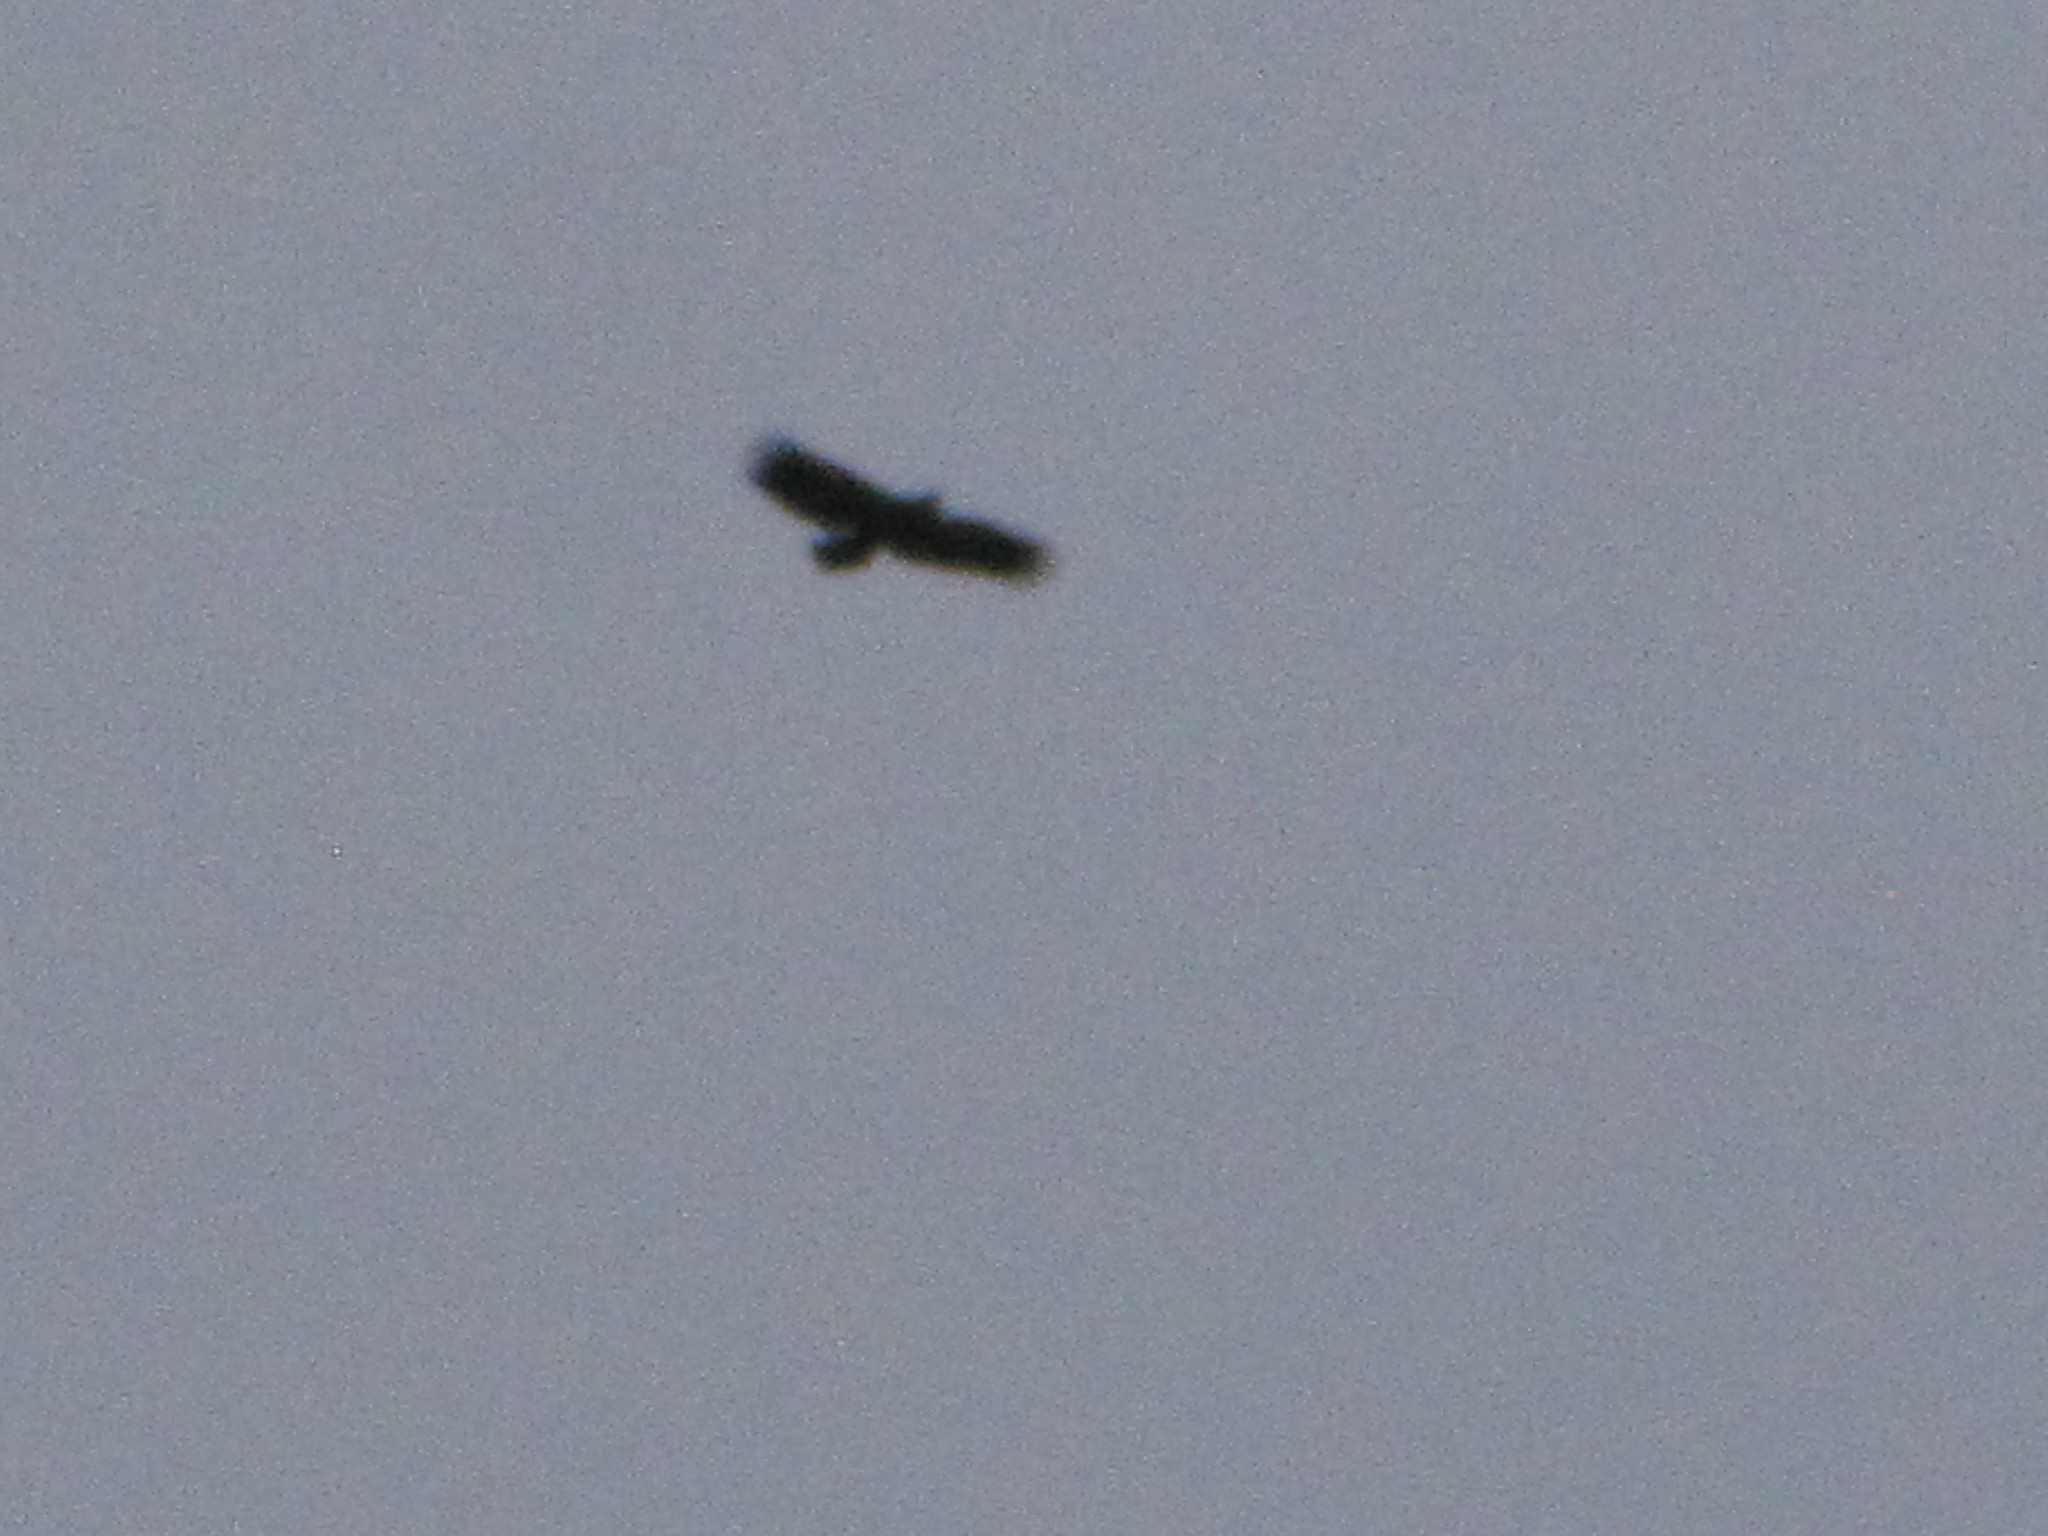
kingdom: Animalia
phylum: Chordata
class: Aves
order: Accipitriformes
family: Accipitridae
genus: Haliaeetus
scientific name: Haliaeetus leucocephalus
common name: Bald eagle
